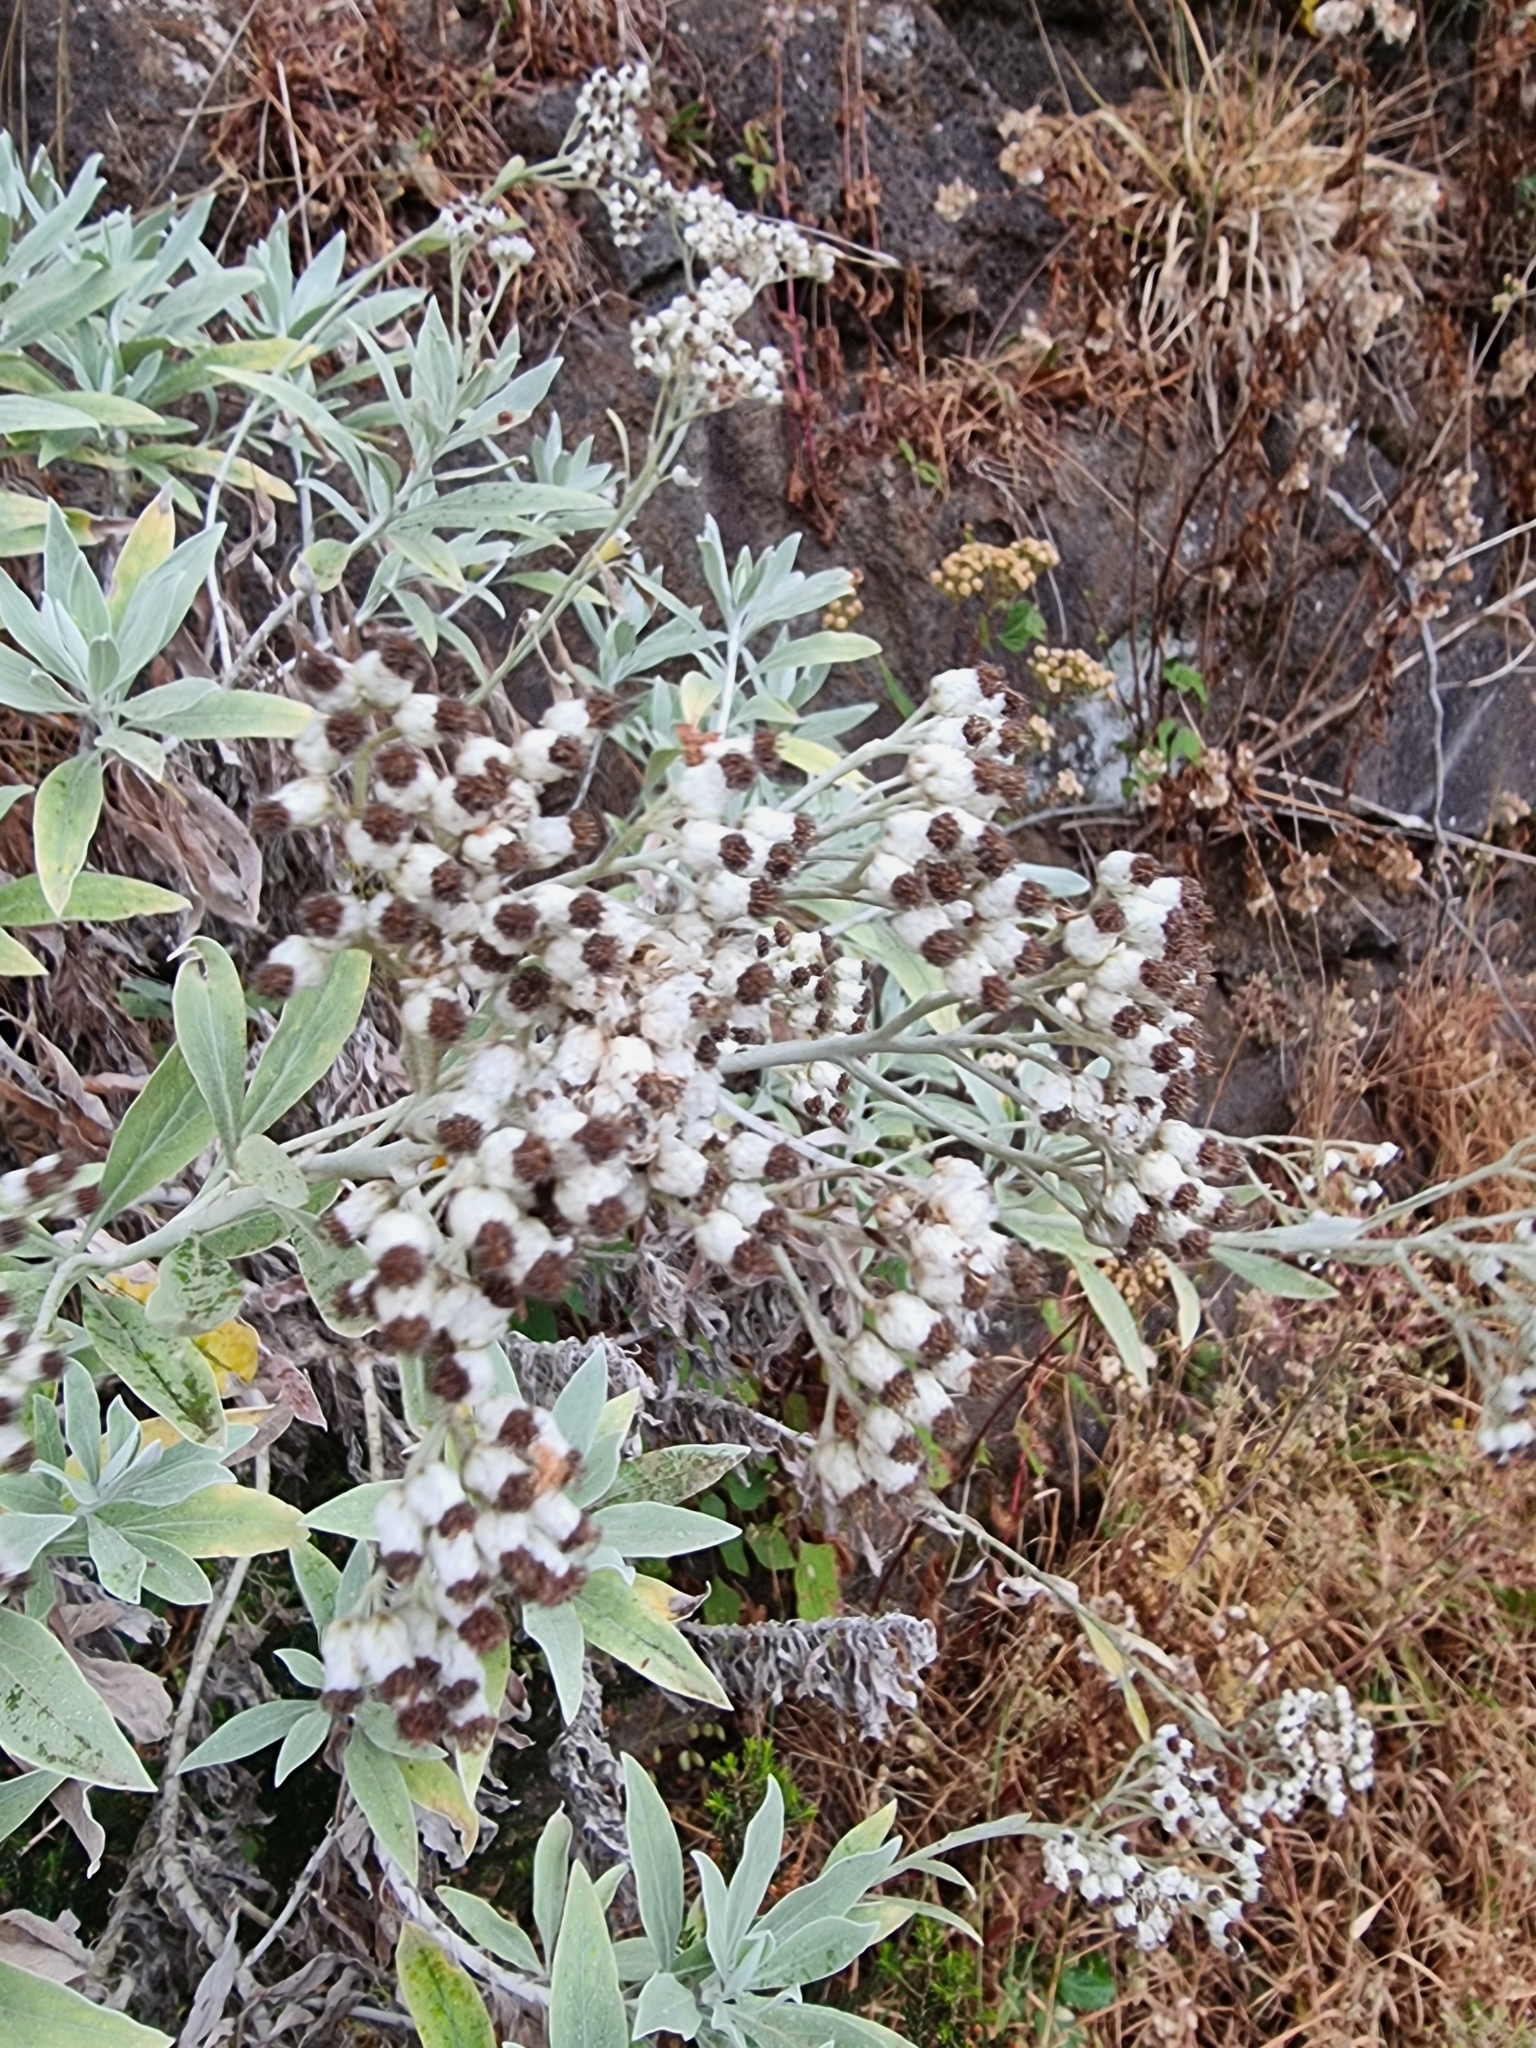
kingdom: Plantae
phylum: Tracheophyta
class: Magnoliopsida
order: Asterales
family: Asteraceae
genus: Helichrysum
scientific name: Helichrysum melaleucum
